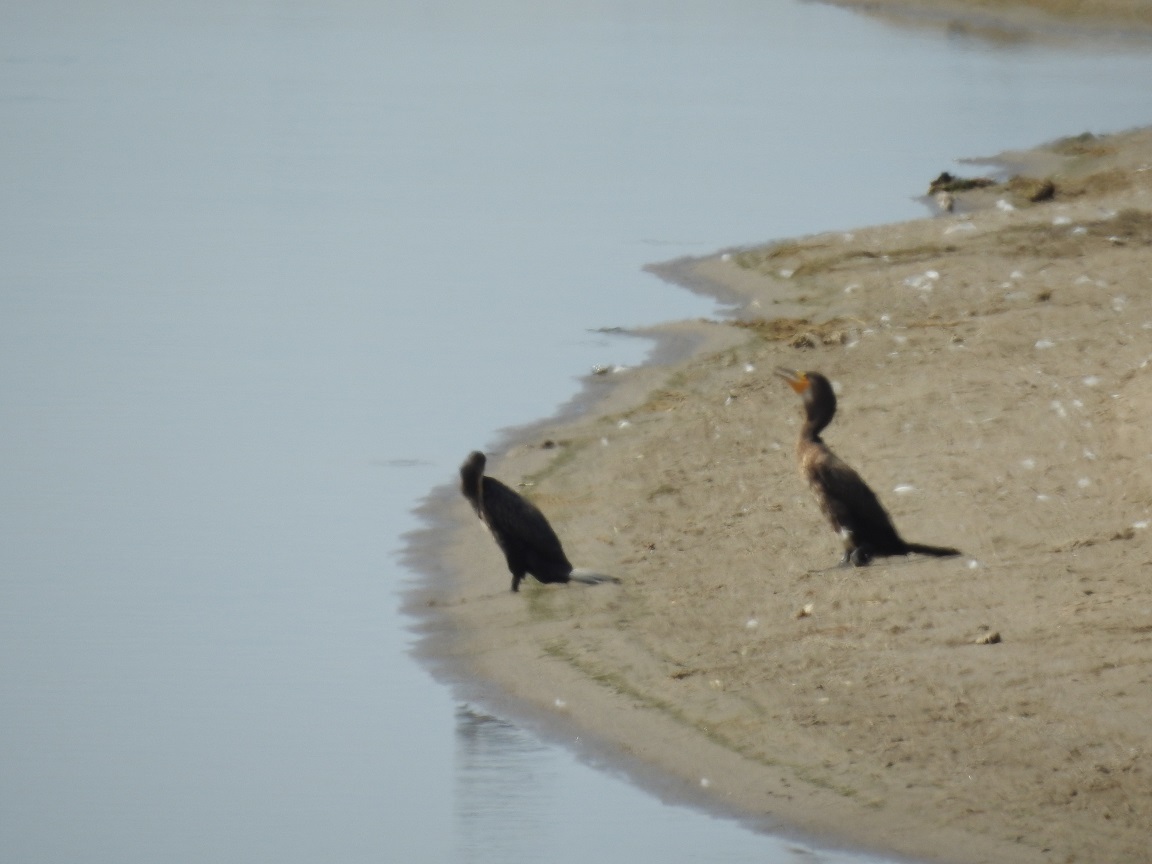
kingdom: Animalia
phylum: Chordata
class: Aves
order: Suliformes
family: Phalacrocoracidae
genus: Phalacrocorax
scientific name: Phalacrocorax carbo
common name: Great cormorant
